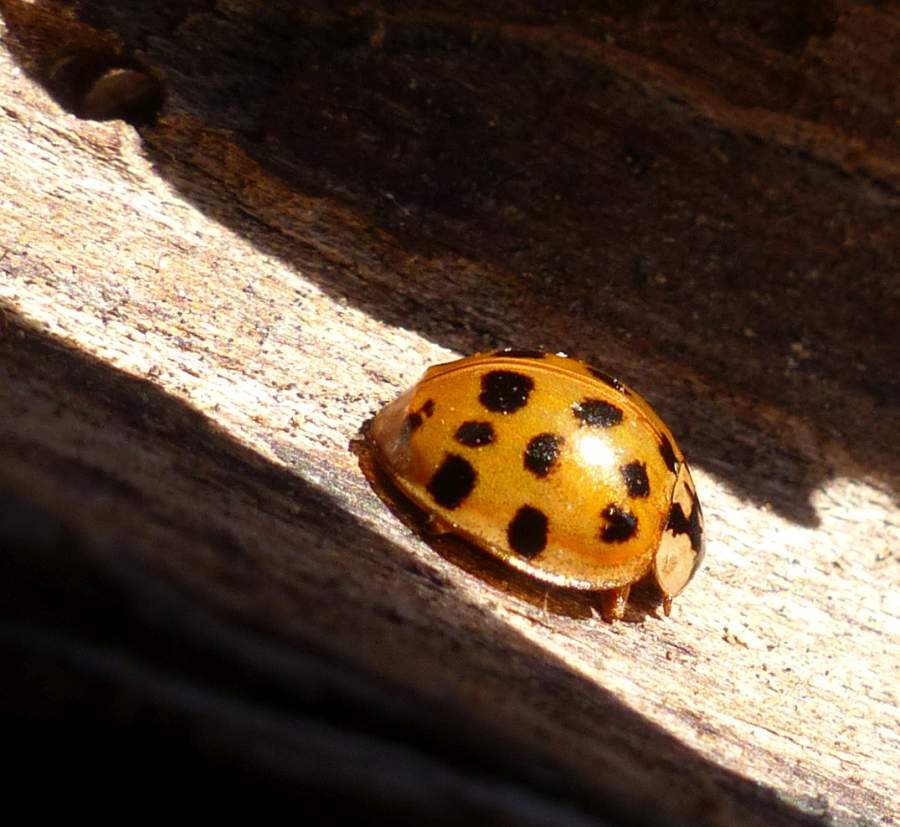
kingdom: Animalia
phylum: Arthropoda
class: Insecta
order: Coleoptera
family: Coccinellidae
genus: Harmonia
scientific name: Harmonia axyridis
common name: Harlequin ladybird
